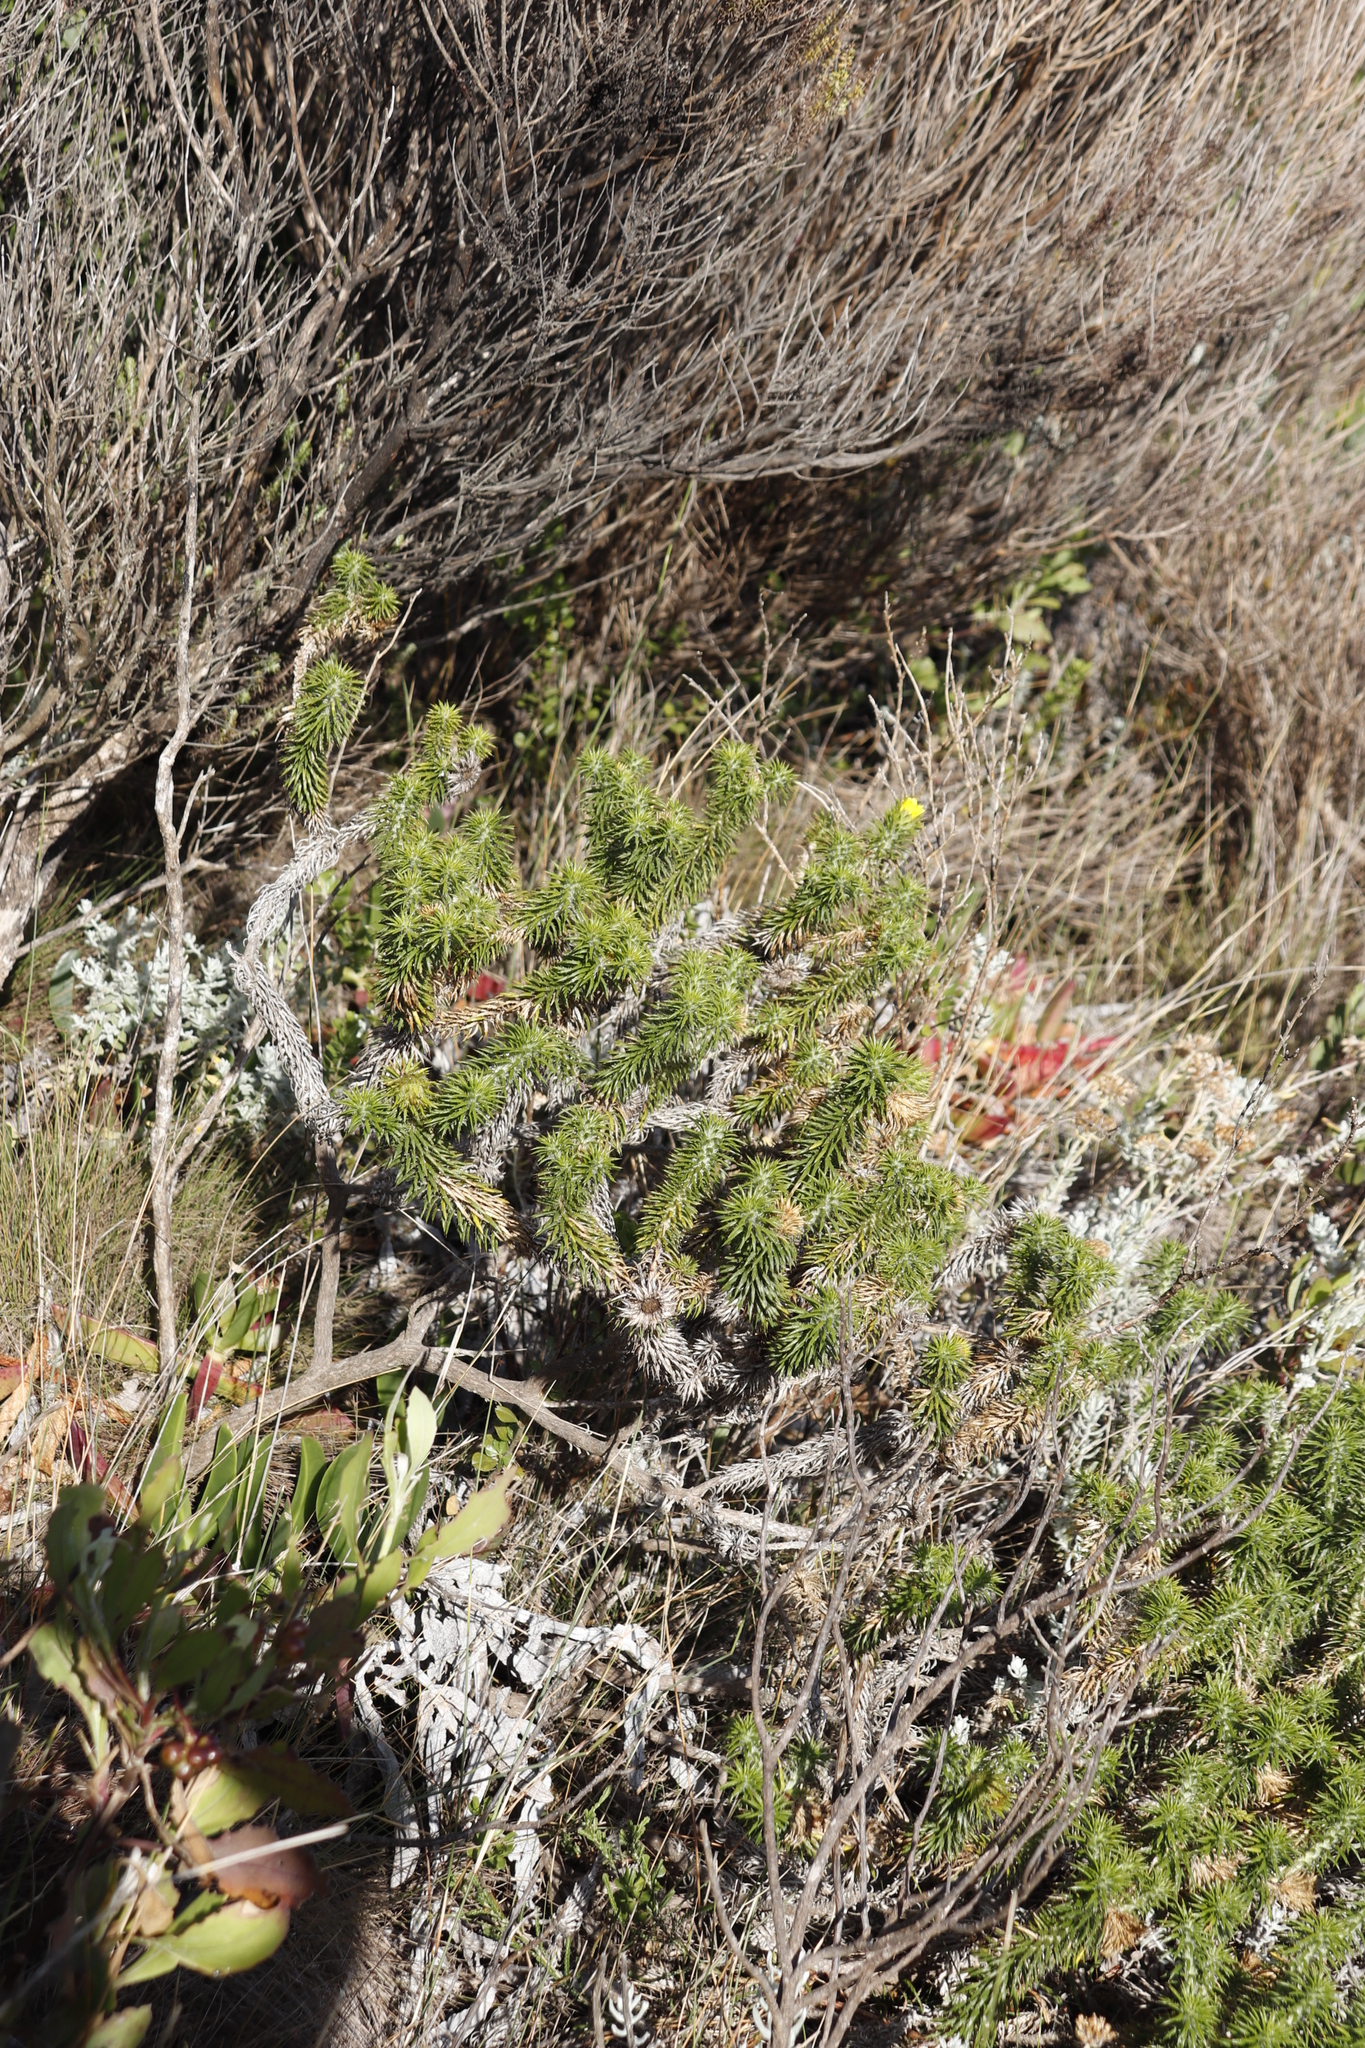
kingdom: Plantae
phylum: Tracheophyta
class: Magnoliopsida
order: Asterales
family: Asteraceae
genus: Cullumia
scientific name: Cullumia squarrosa
